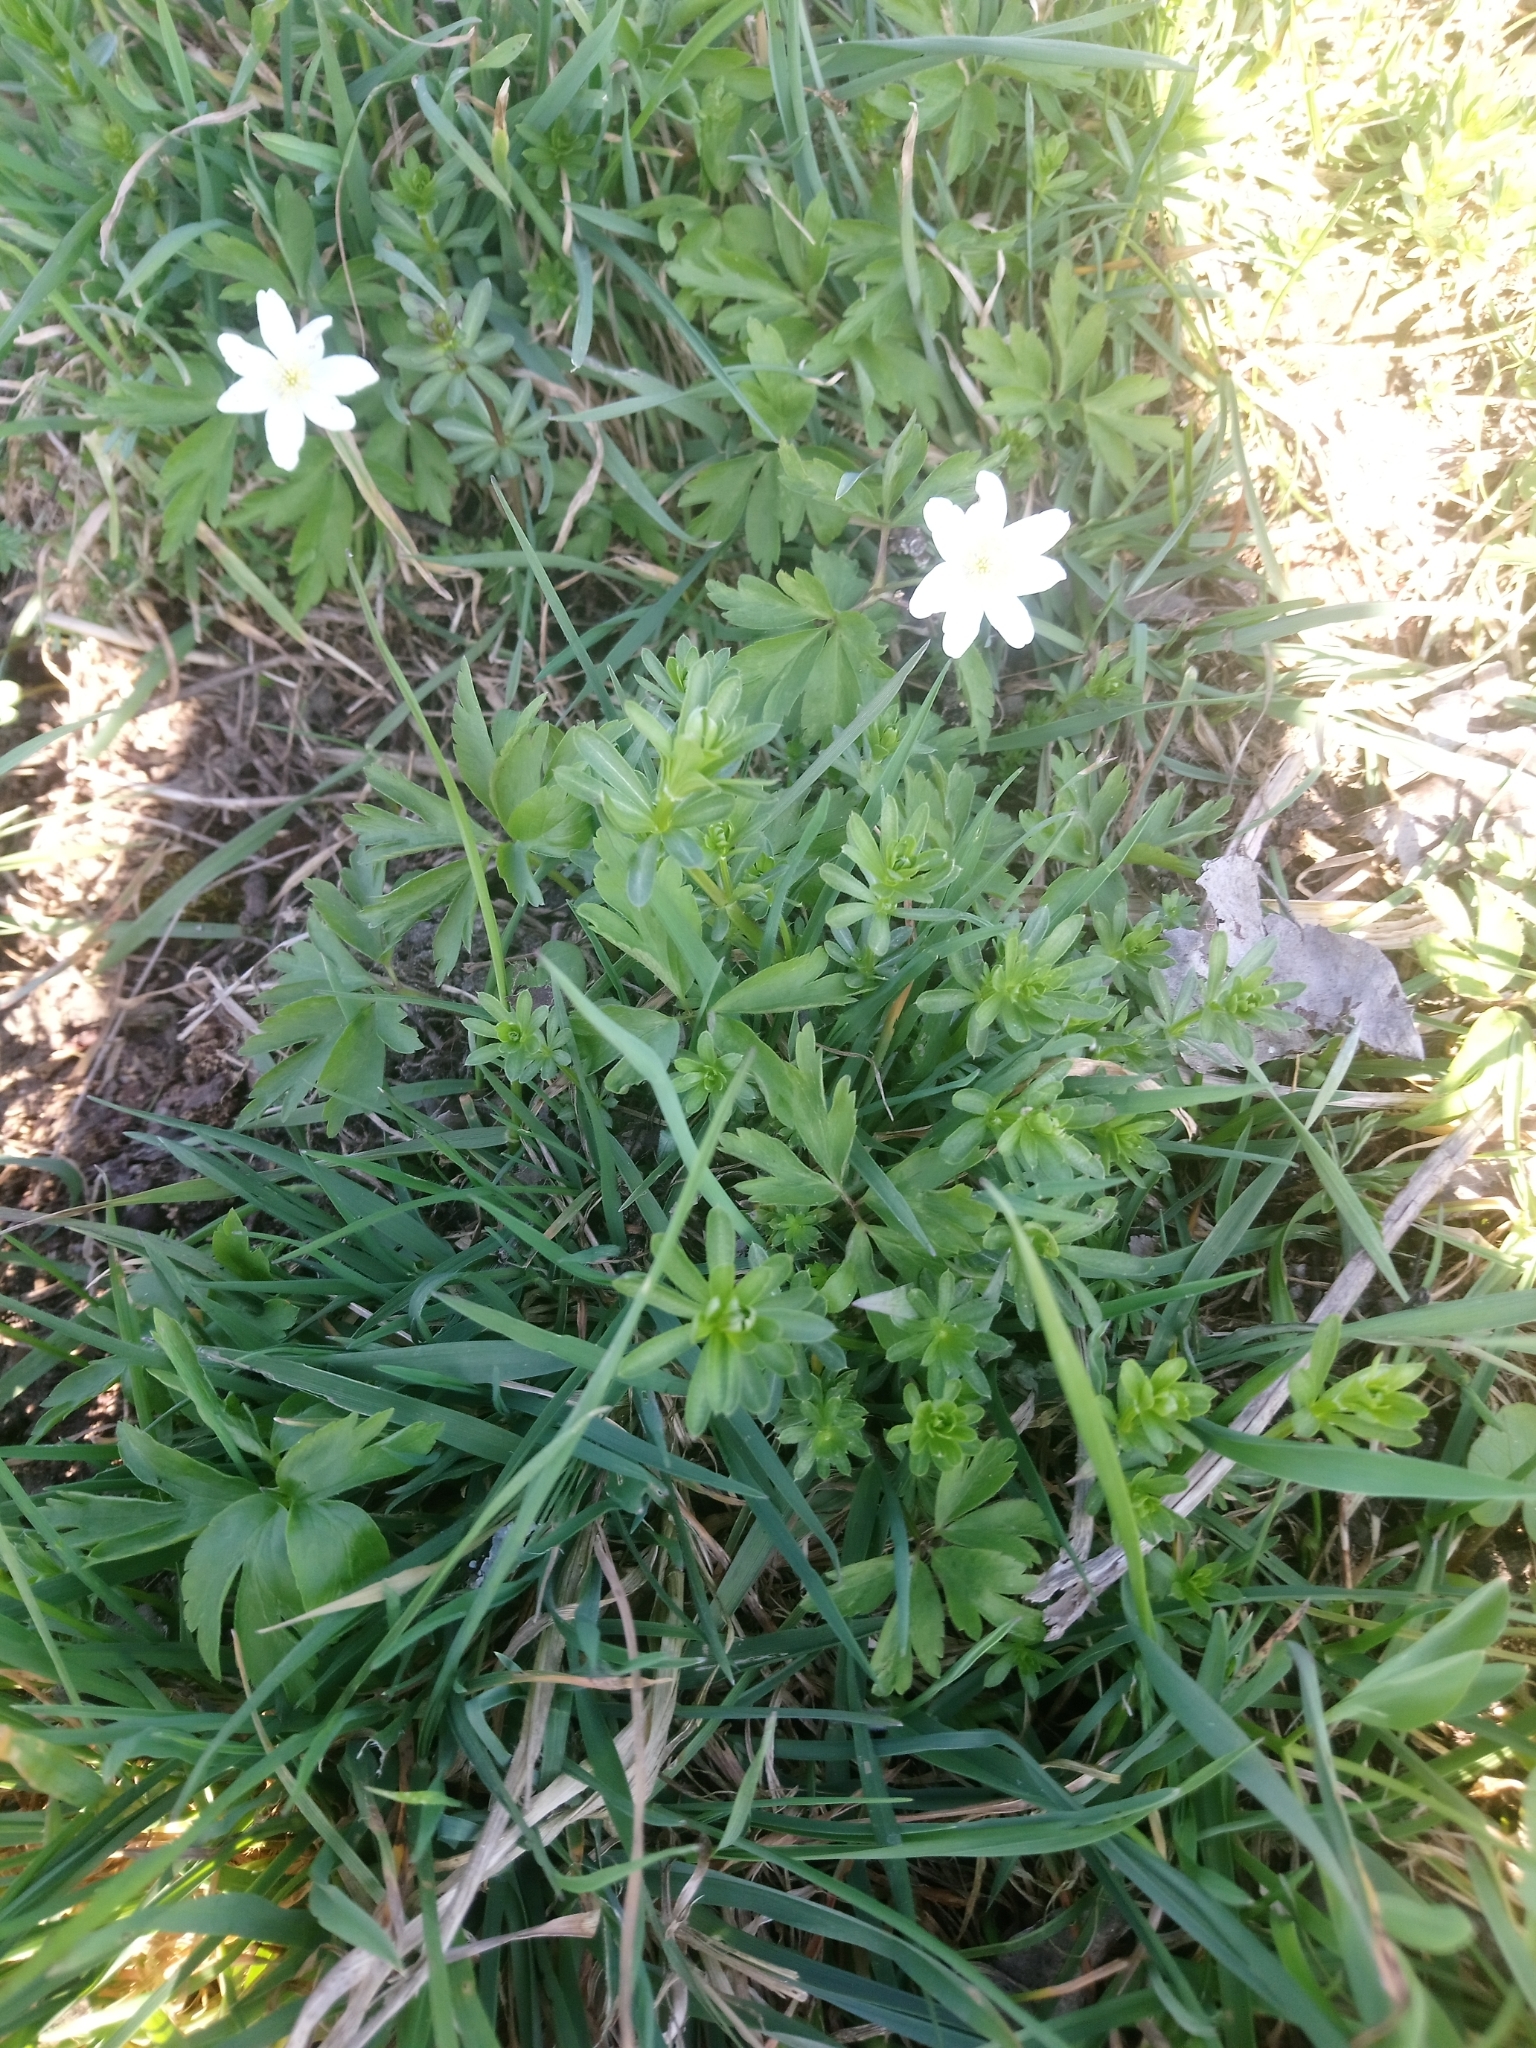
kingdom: Plantae
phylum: Tracheophyta
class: Magnoliopsida
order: Ranunculales
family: Ranunculaceae
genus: Anemone
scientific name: Anemone nemorosa
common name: Wood anemone
